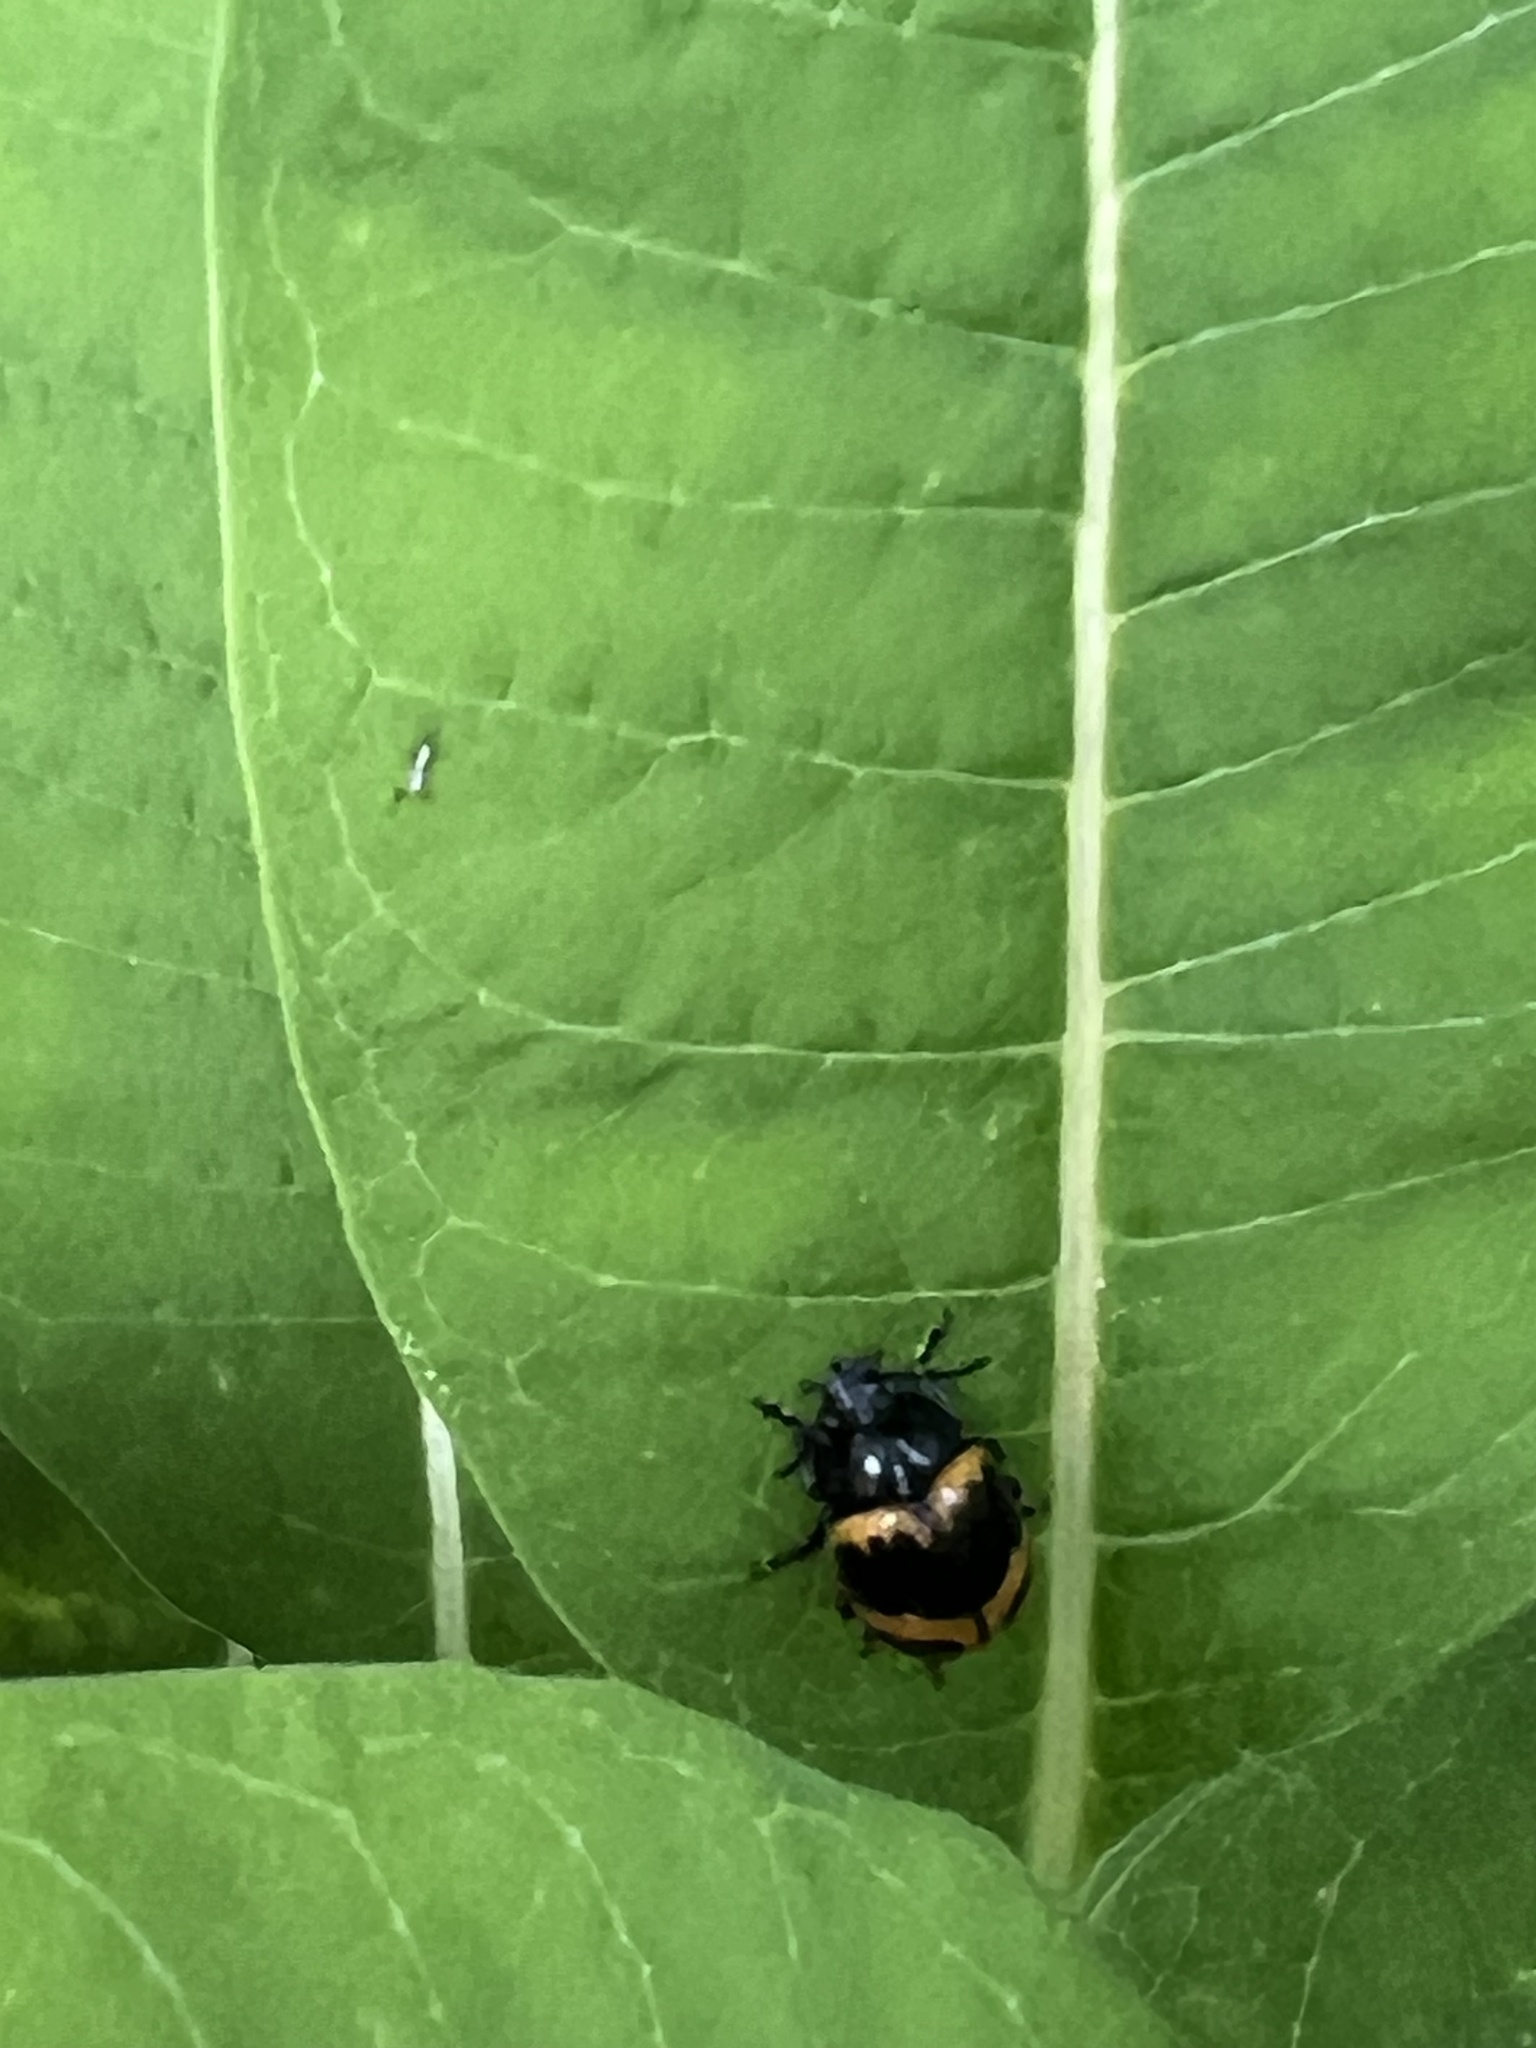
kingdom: Animalia
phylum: Arthropoda
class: Insecta
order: Coleoptera
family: Chrysomelidae
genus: Labidomera
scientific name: Labidomera clivicollis
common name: Swamp milkweed leaf beetle
